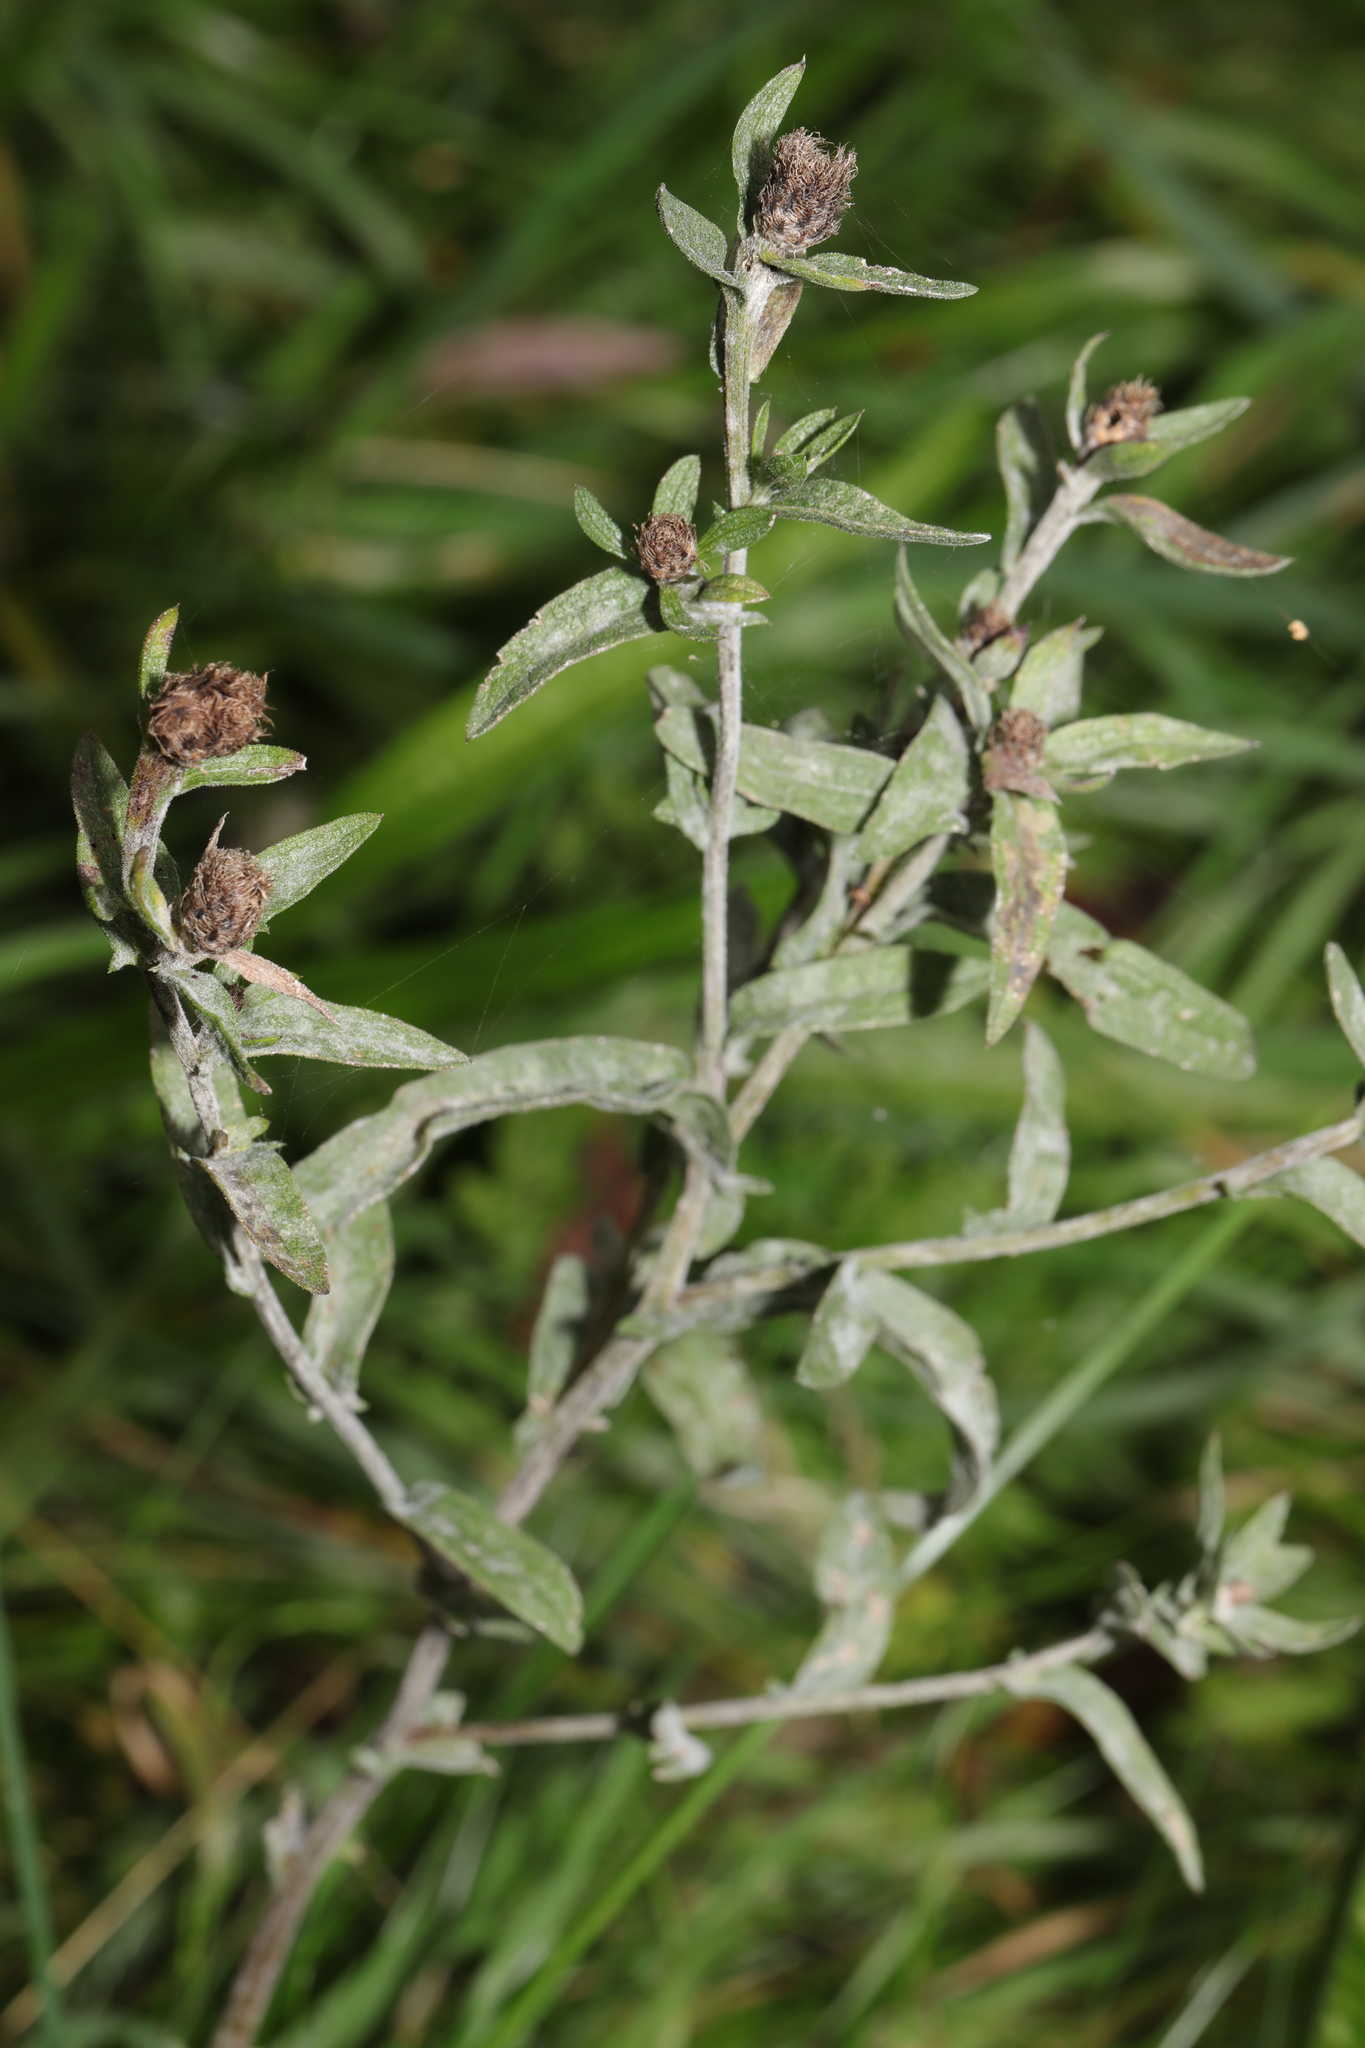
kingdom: Plantae
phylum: Tracheophyta
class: Magnoliopsida
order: Asterales
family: Asteraceae
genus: Centaurea
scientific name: Centaurea nigra
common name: Lesser knapweed
